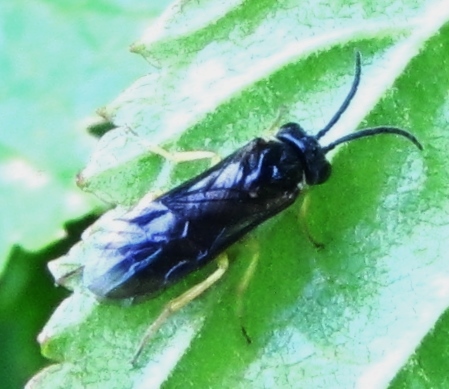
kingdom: Animalia
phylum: Arthropoda
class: Insecta
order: Hymenoptera
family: Tenthredinidae
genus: Aneugmenus
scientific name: Aneugmenus flavipes
